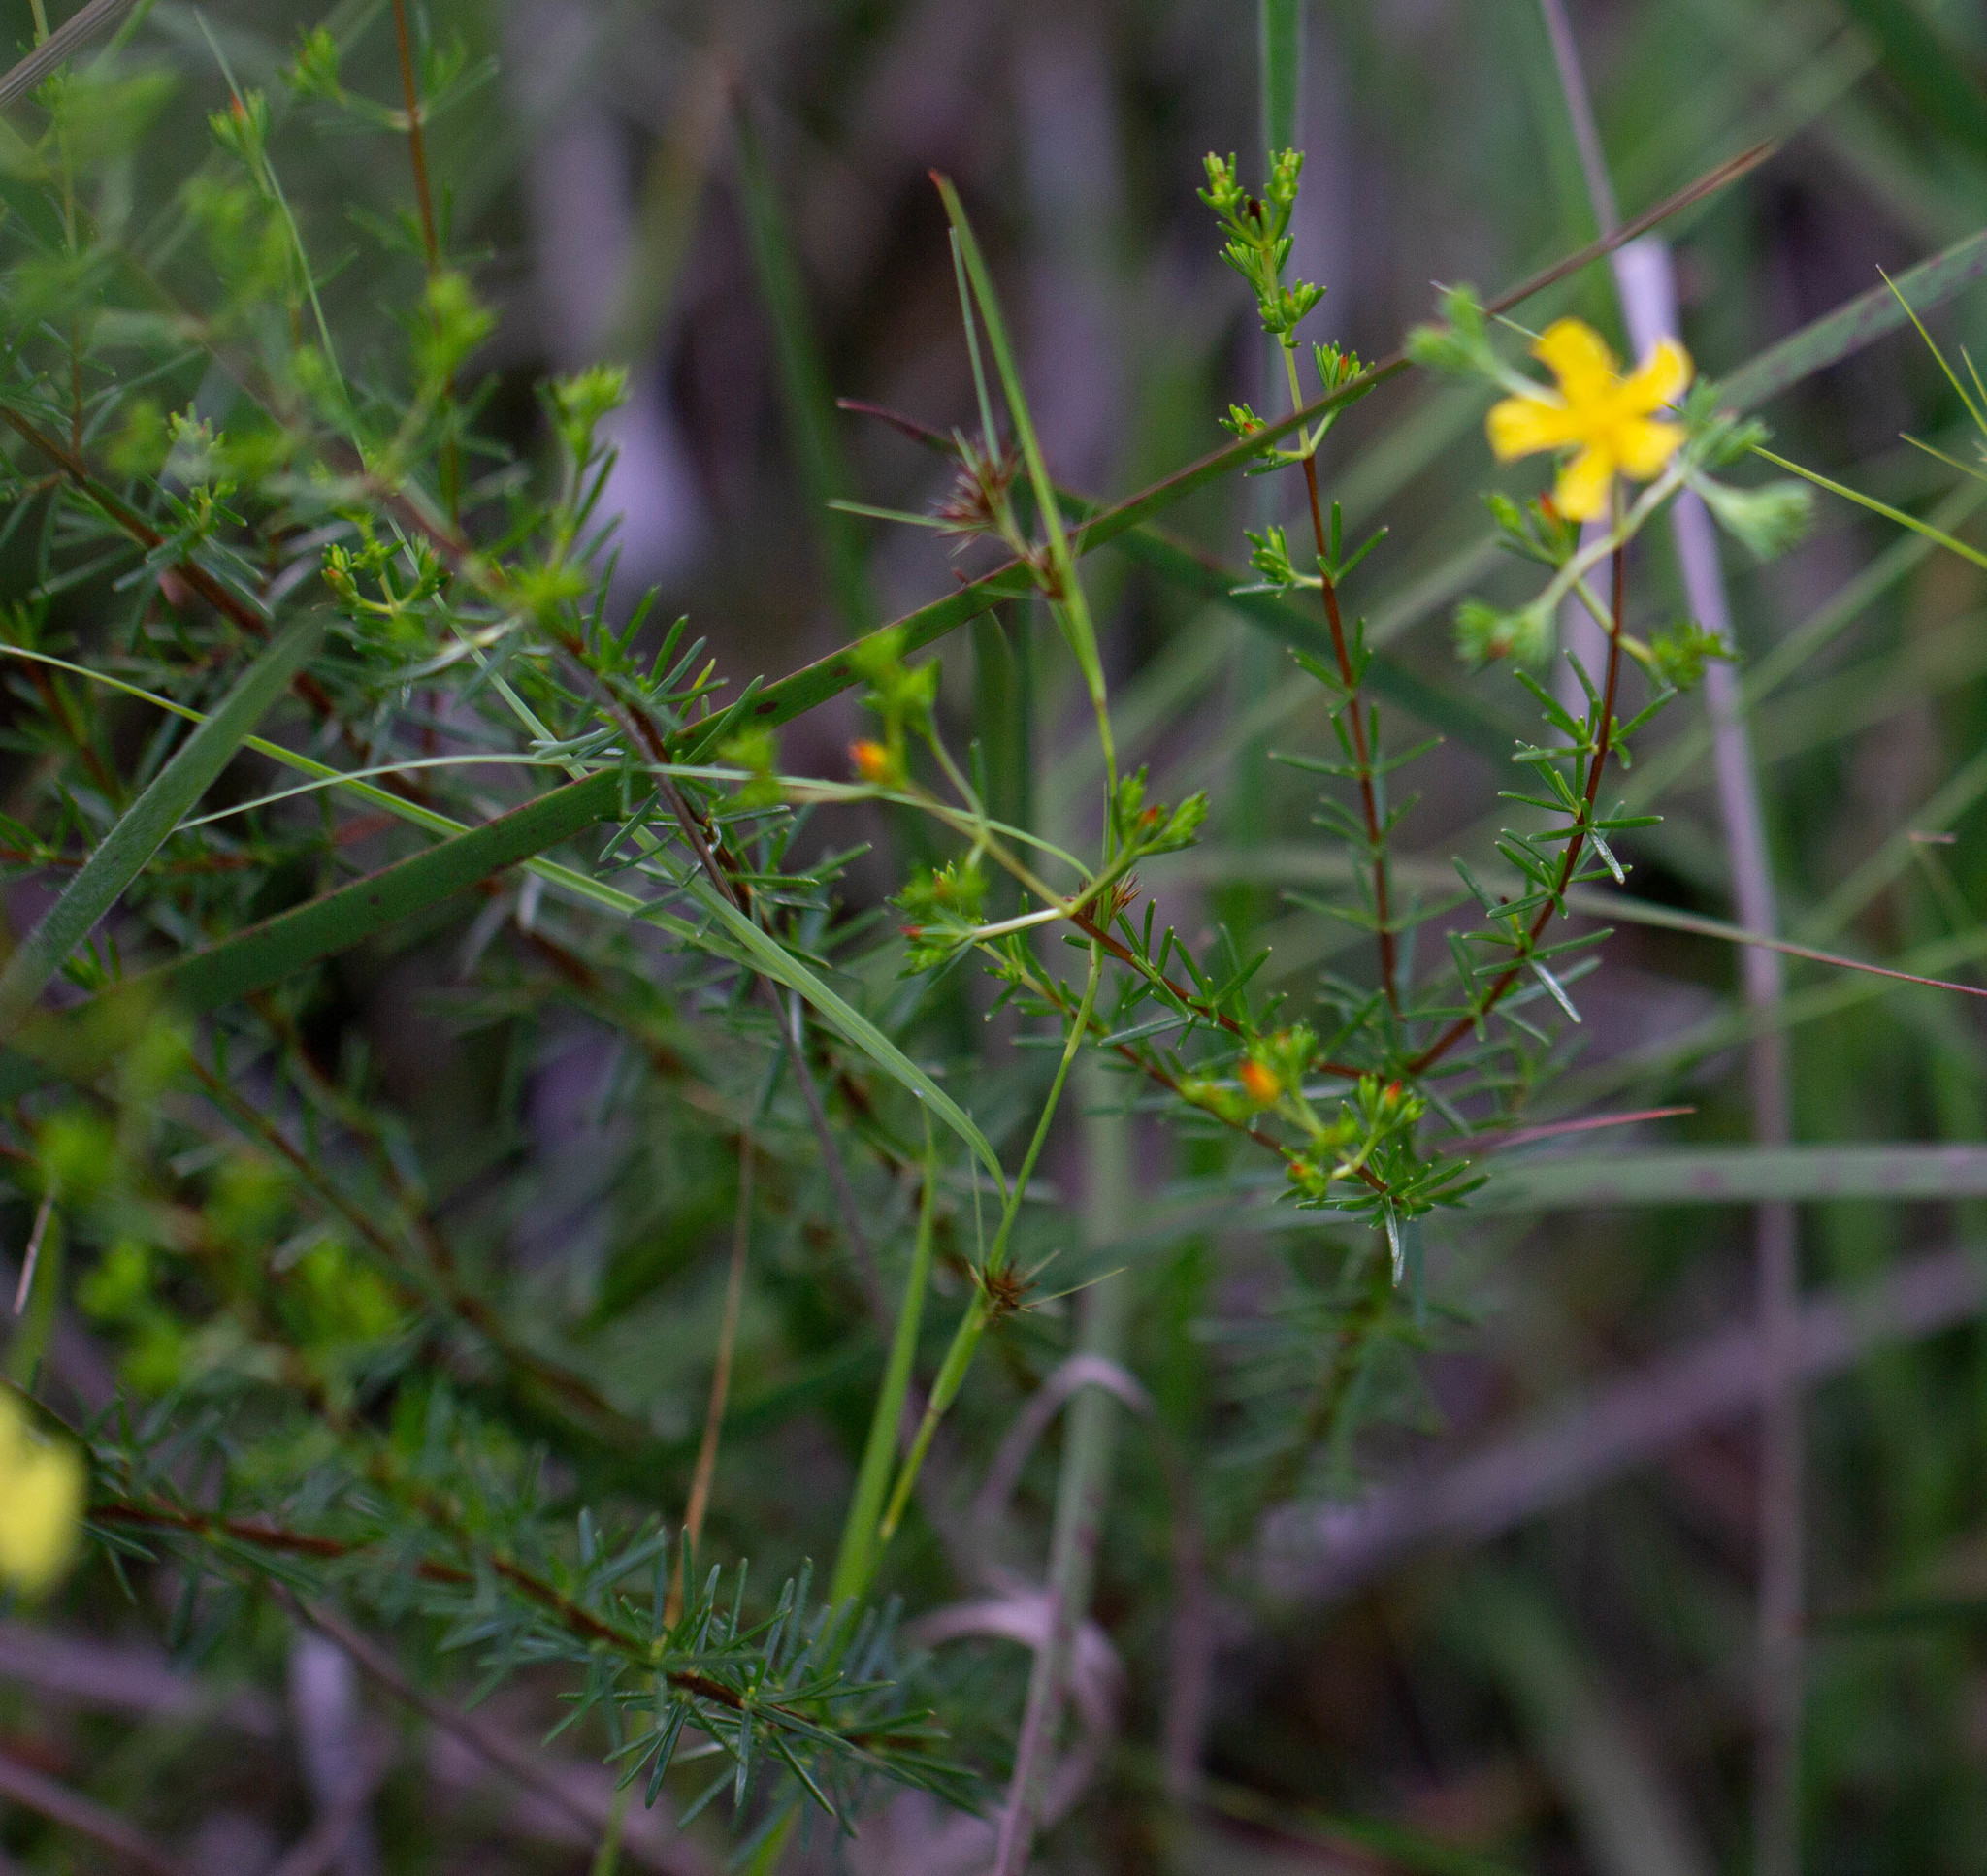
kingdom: Plantae
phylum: Tracheophyta
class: Magnoliopsida
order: Malpighiales
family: Hypericaceae
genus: Hypericum
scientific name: Hypericum brachyphyllum
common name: Coastal plain st. john's-wort
